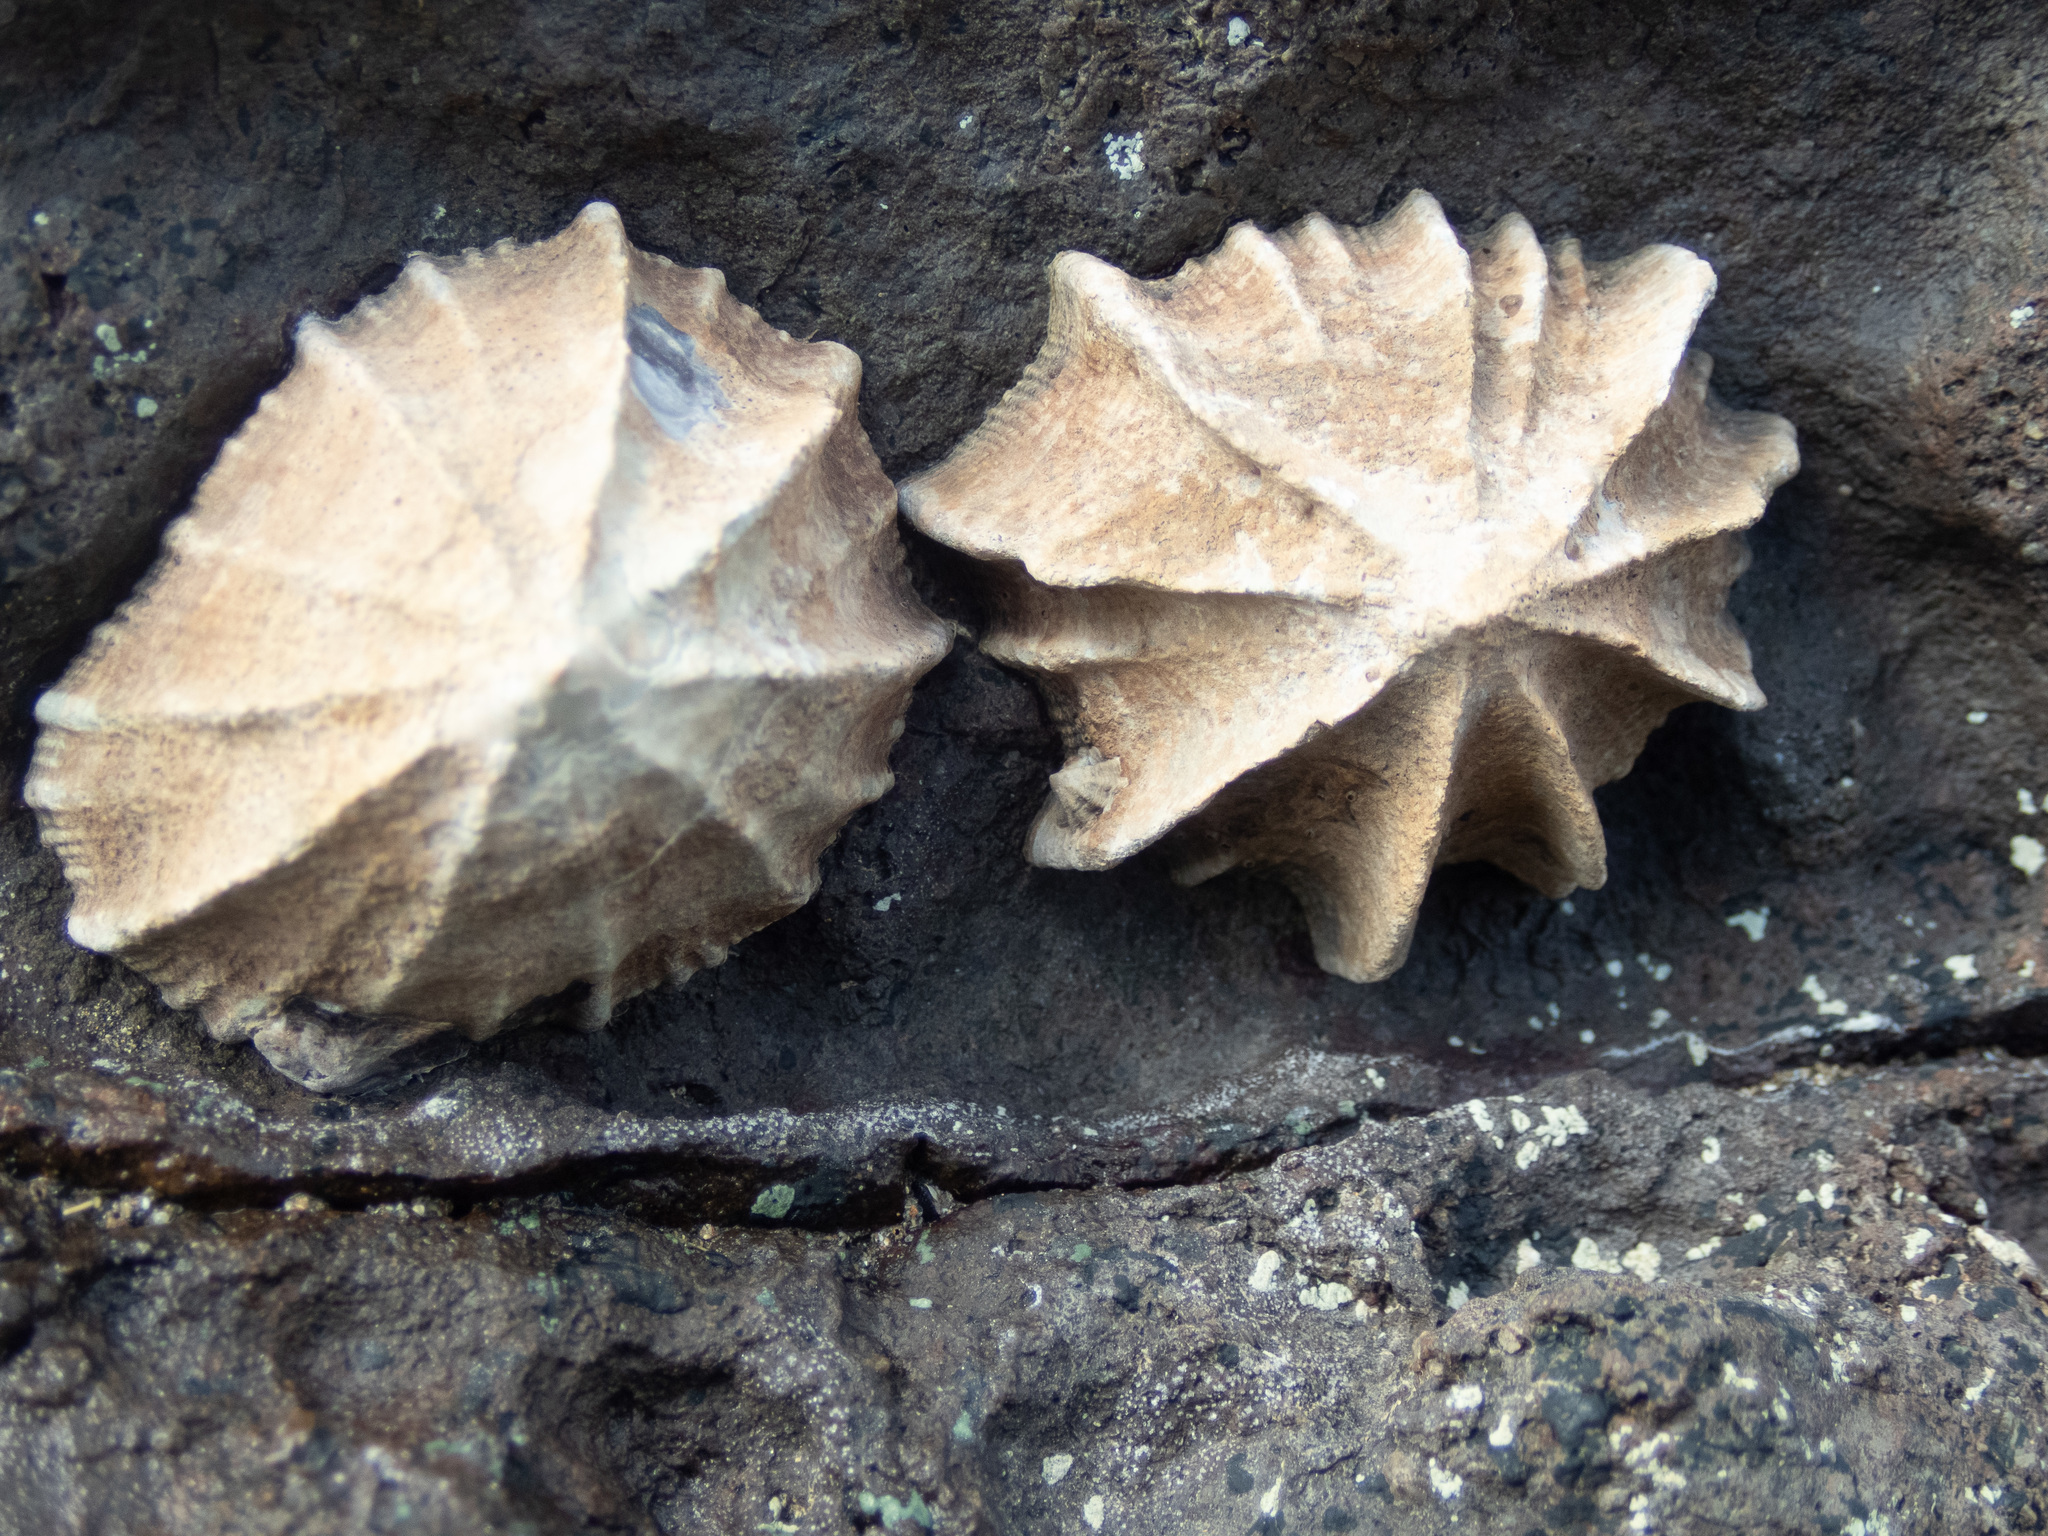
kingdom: Animalia
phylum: Mollusca
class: Gastropoda
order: Siphonariida
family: Siphonariidae
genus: Siphonaria
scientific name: Siphonaria gigas
